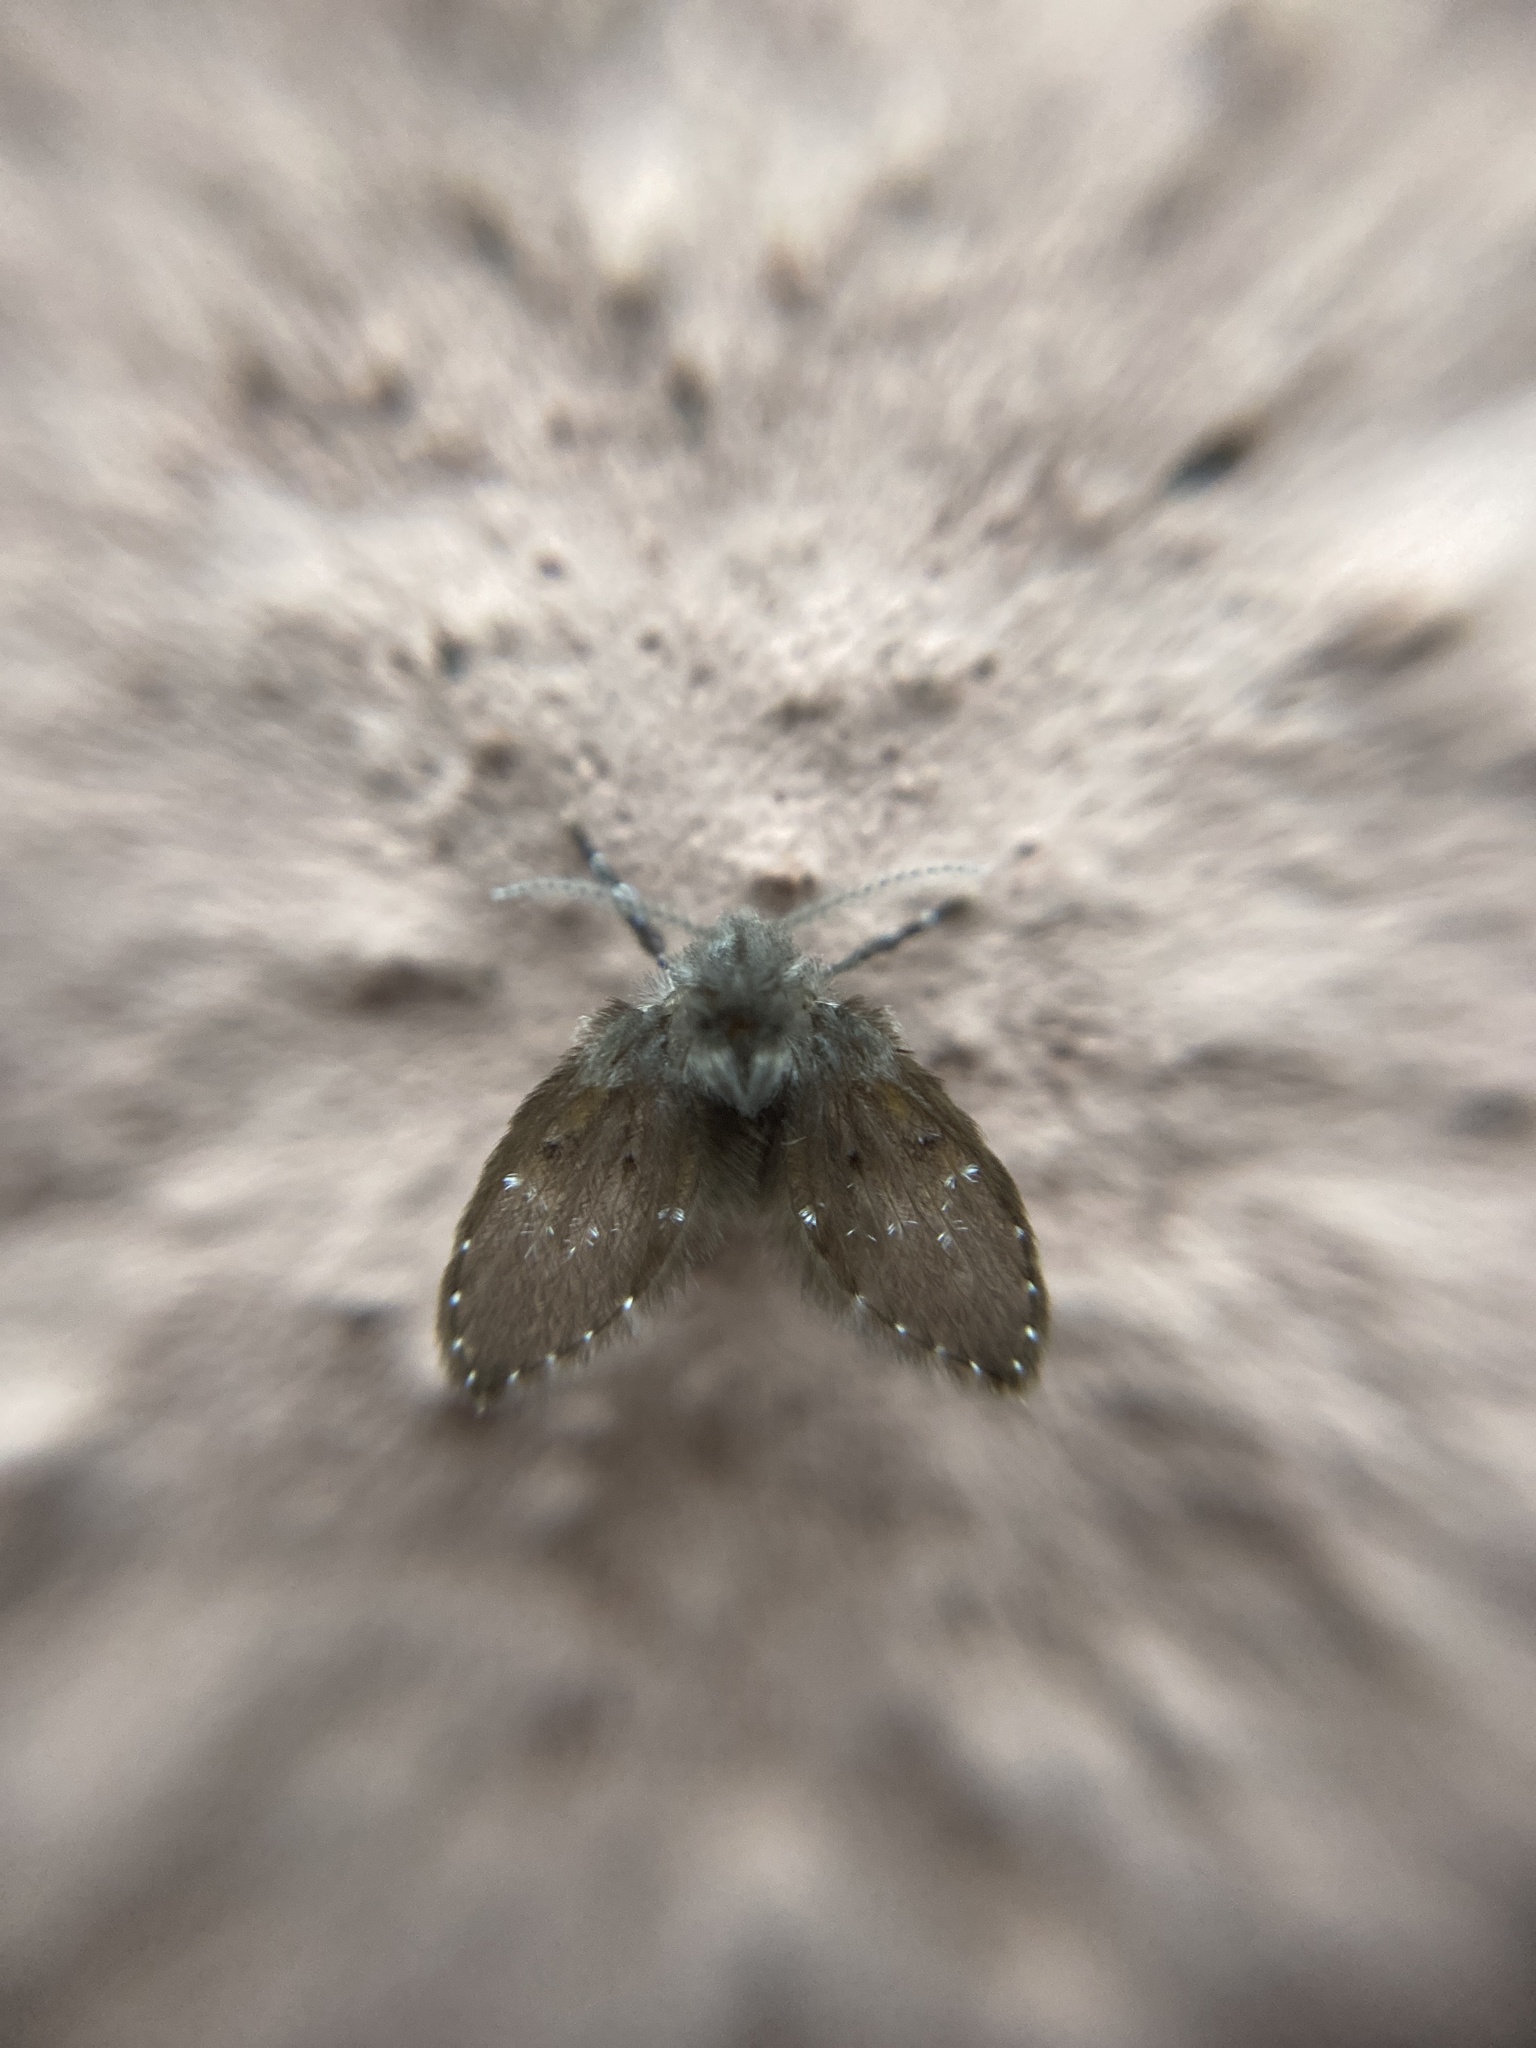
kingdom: Animalia
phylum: Arthropoda
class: Insecta
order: Diptera
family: Psychodidae
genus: Clogmia
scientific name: Clogmia albipunctatus
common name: White-spotted moth fly
